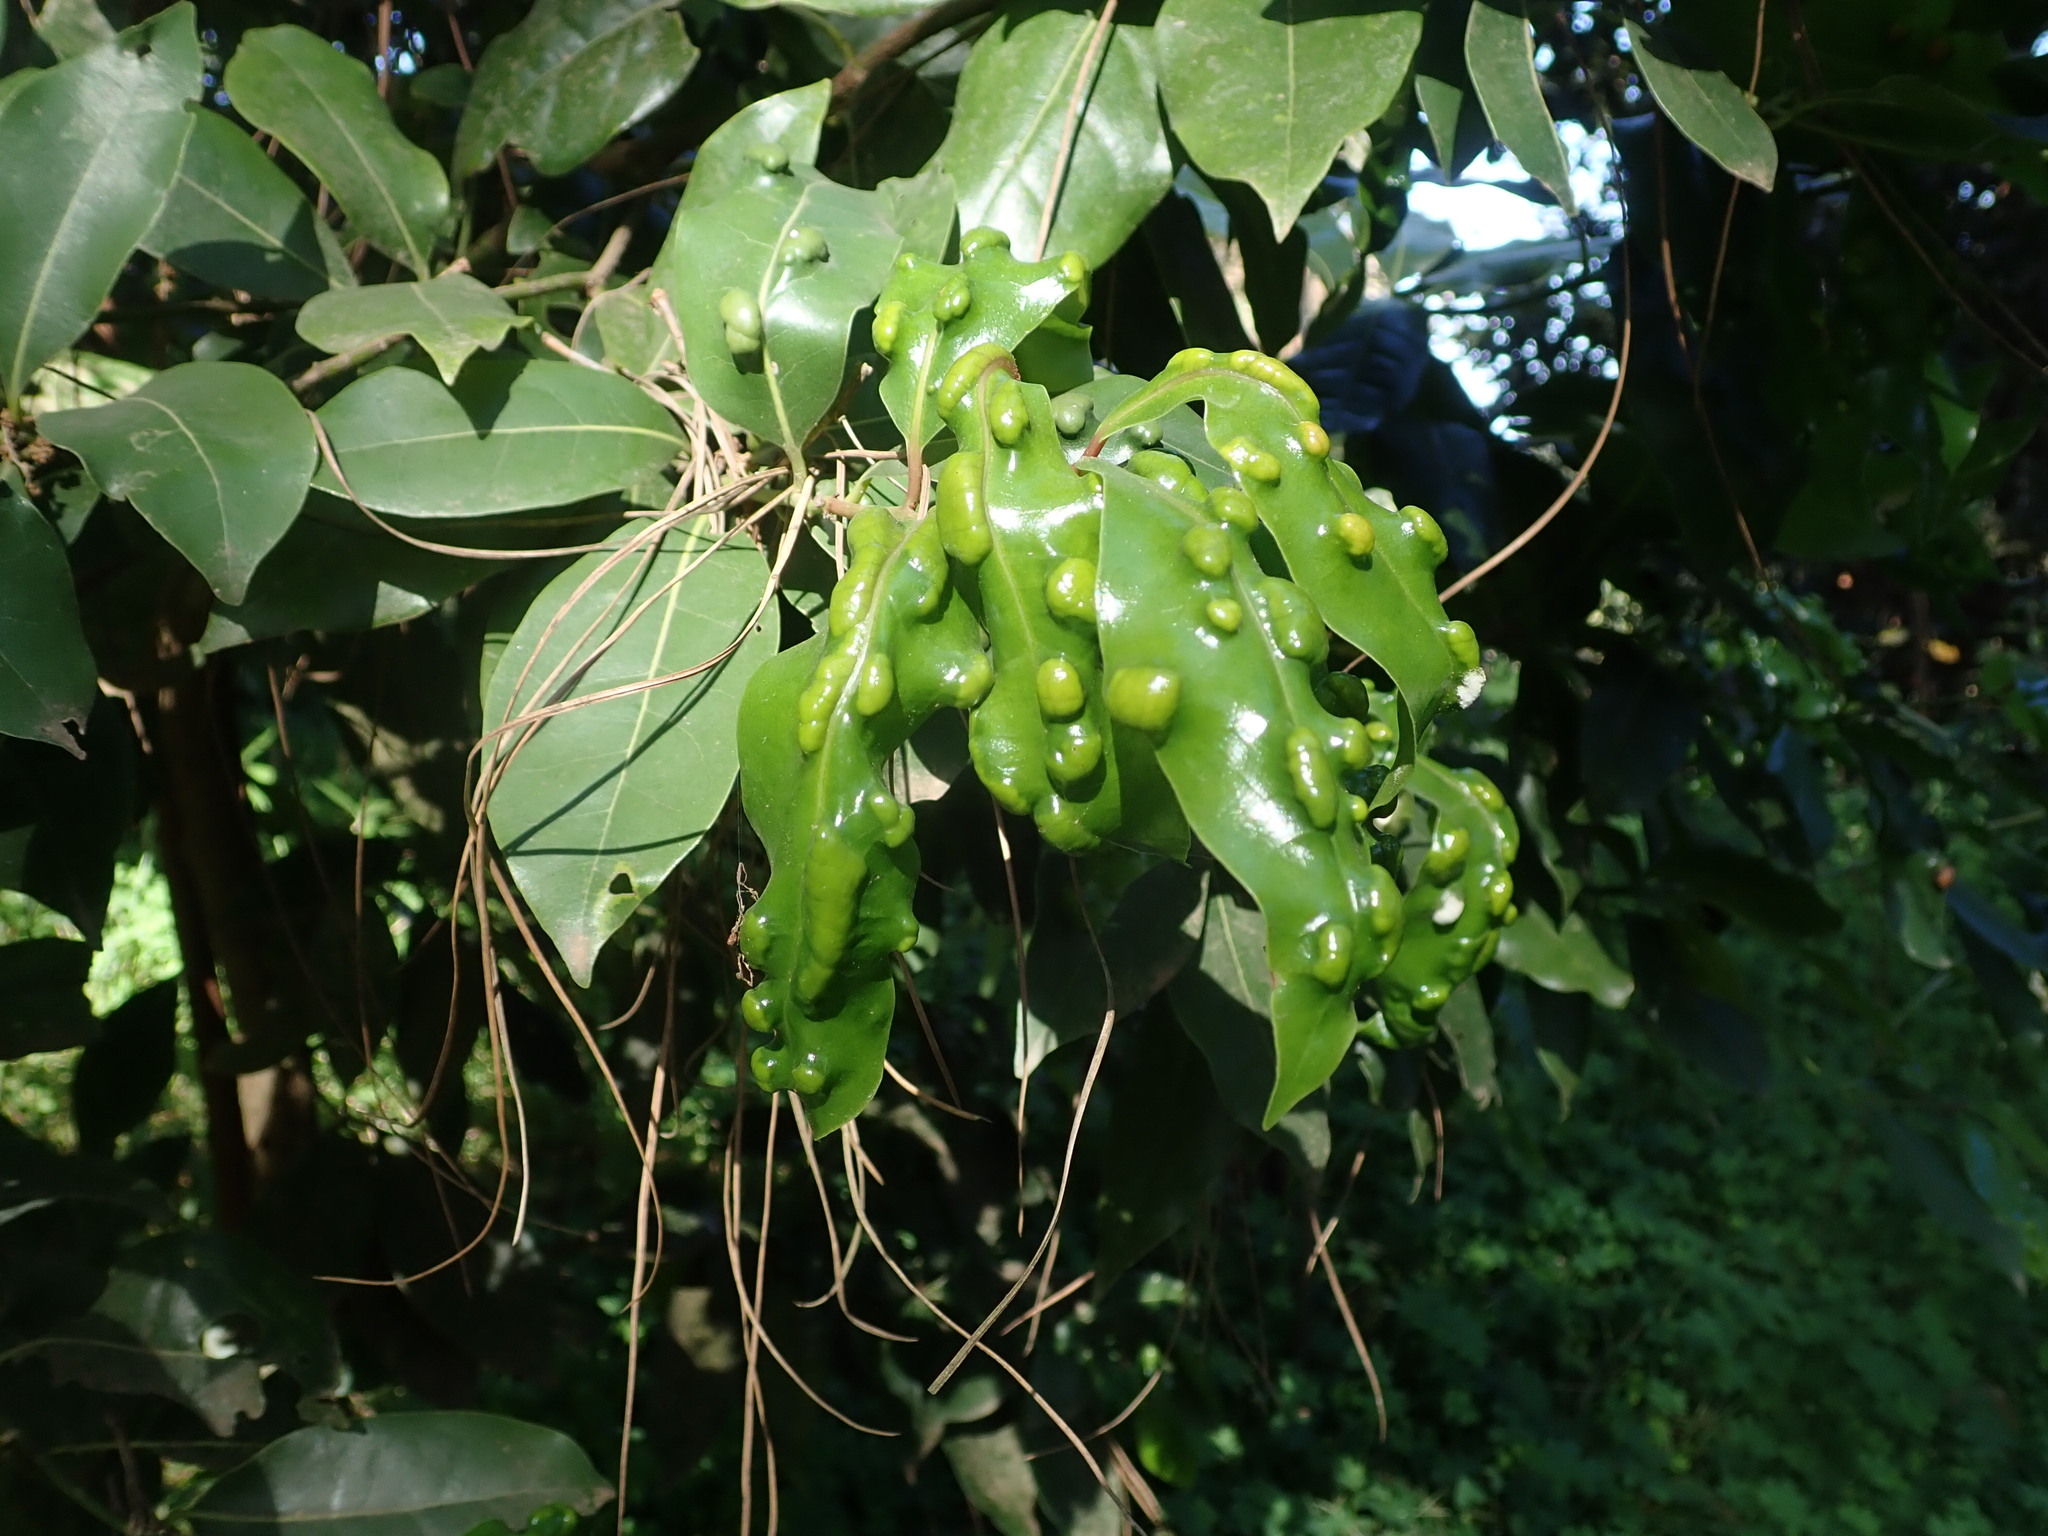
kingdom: Plantae
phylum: Tracheophyta
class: Magnoliopsida
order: Laurales
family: Lauraceae
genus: Apollonias
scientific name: Apollonias barbujana
